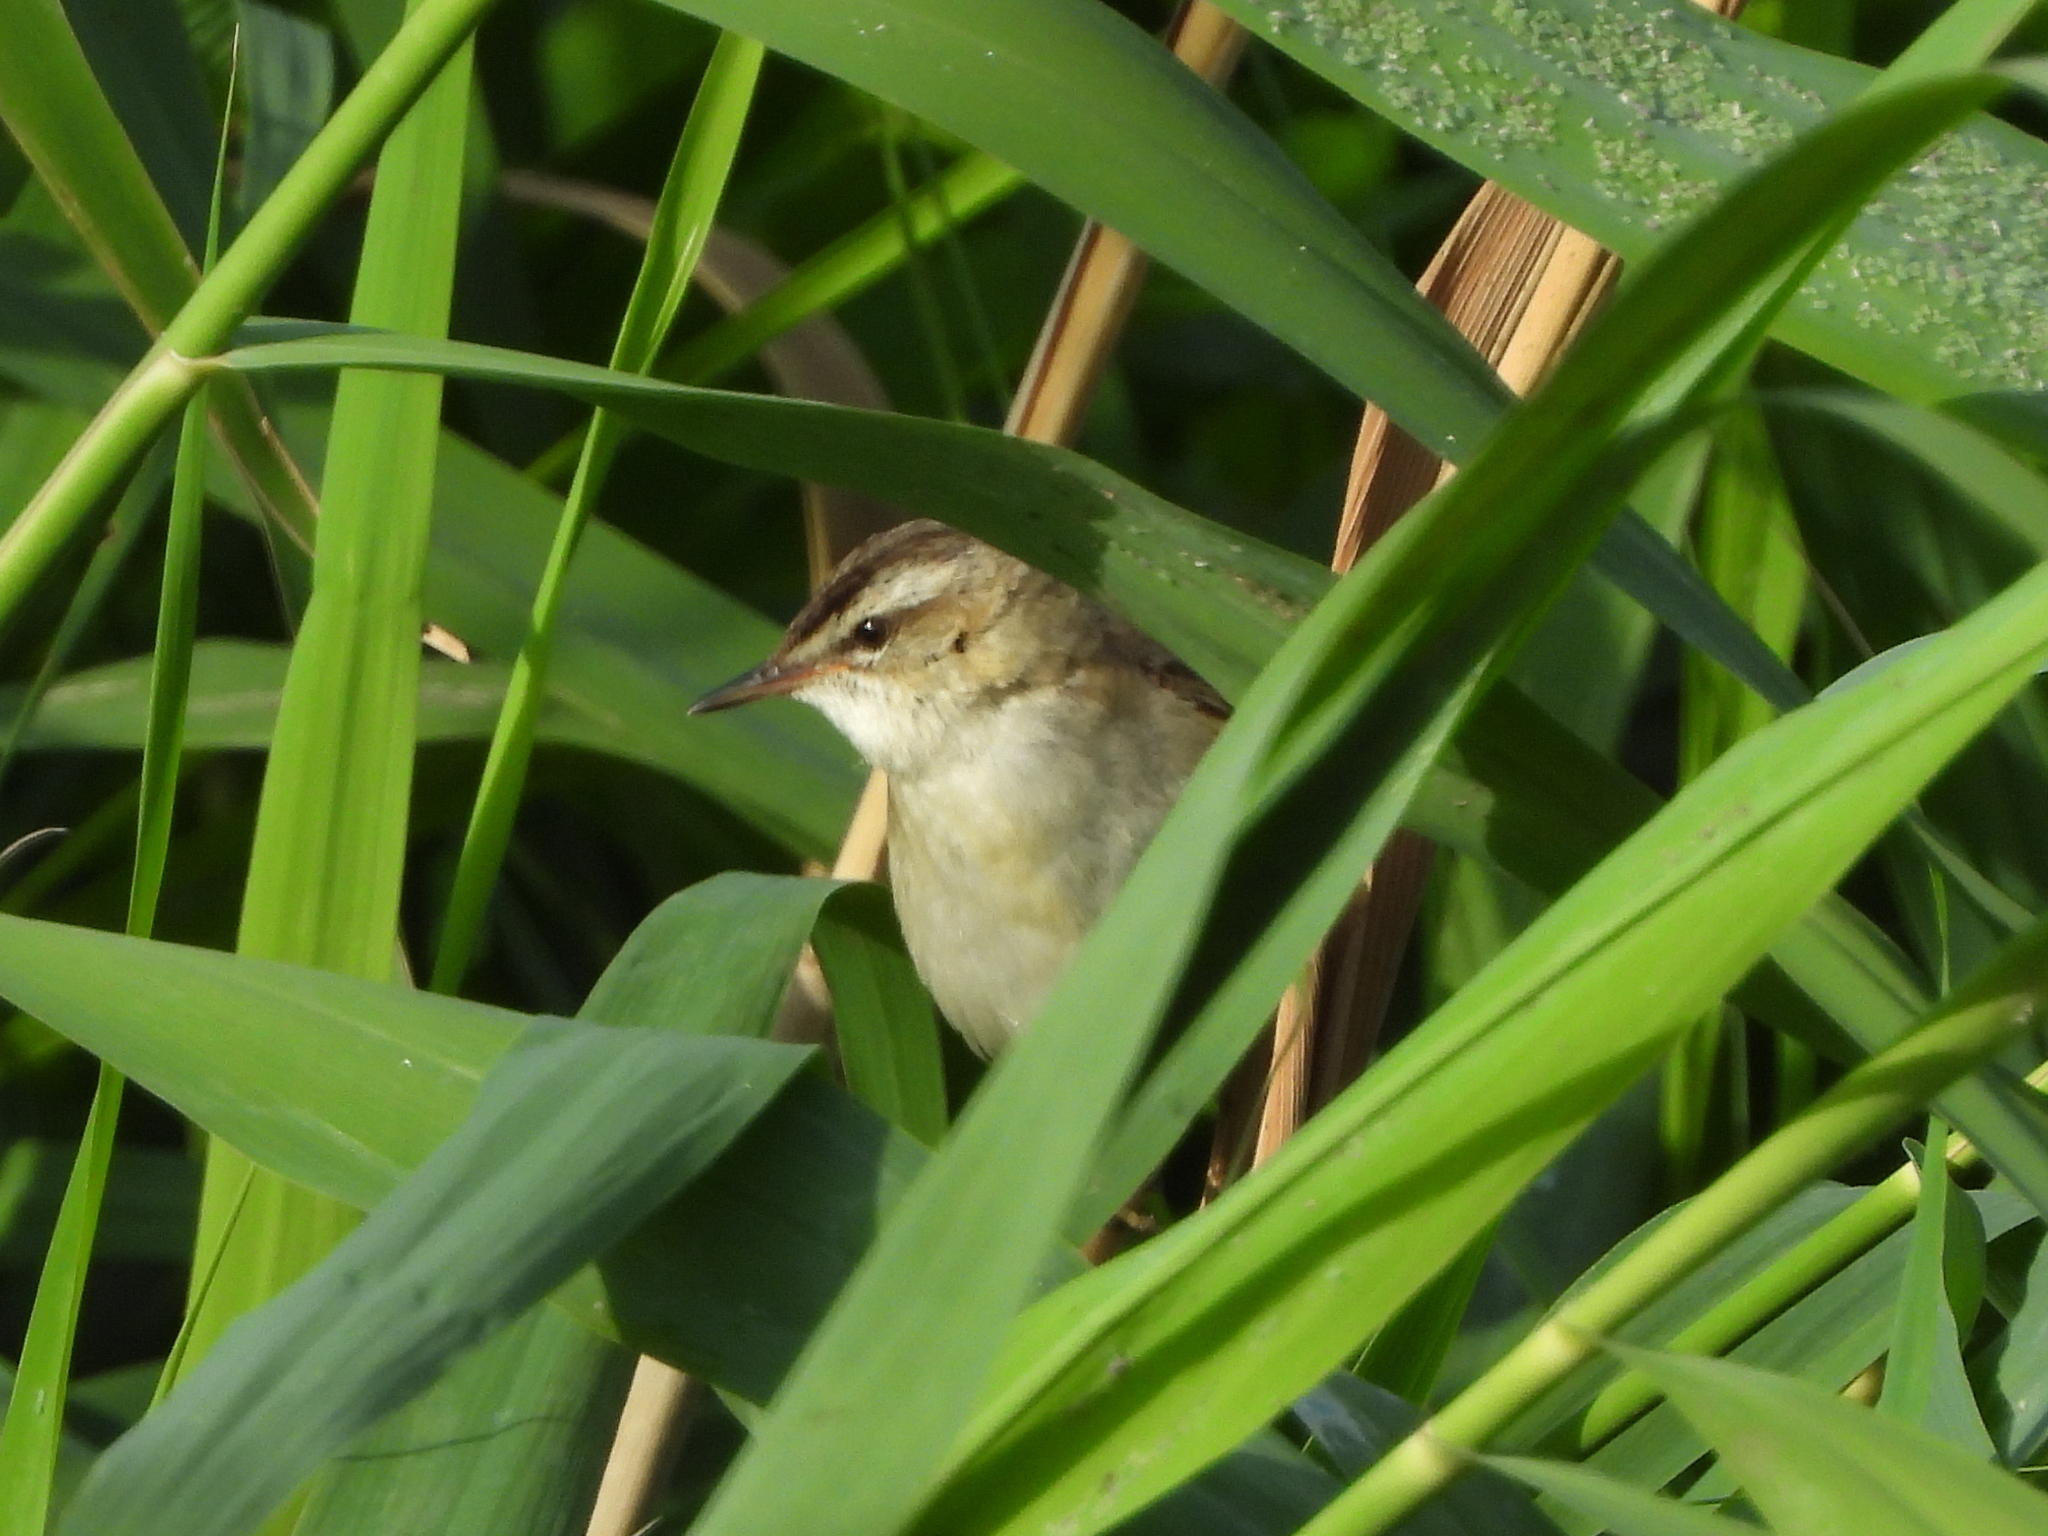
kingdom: Animalia
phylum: Chordata
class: Aves
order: Passeriformes
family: Acrocephalidae
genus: Acrocephalus
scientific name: Acrocephalus schoenobaenus
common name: Sedge warbler
